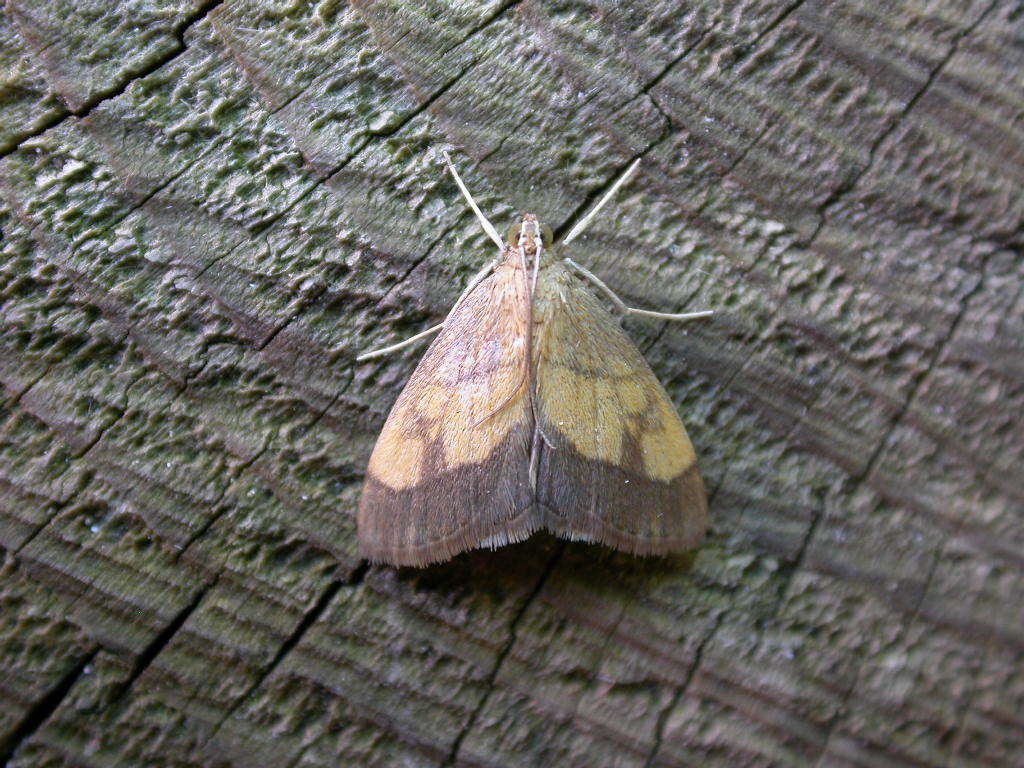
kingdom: Animalia
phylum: Arthropoda
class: Insecta
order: Lepidoptera
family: Crambidae
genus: Evergestis
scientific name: Evergestis limbata
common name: Dark bordered pearl
